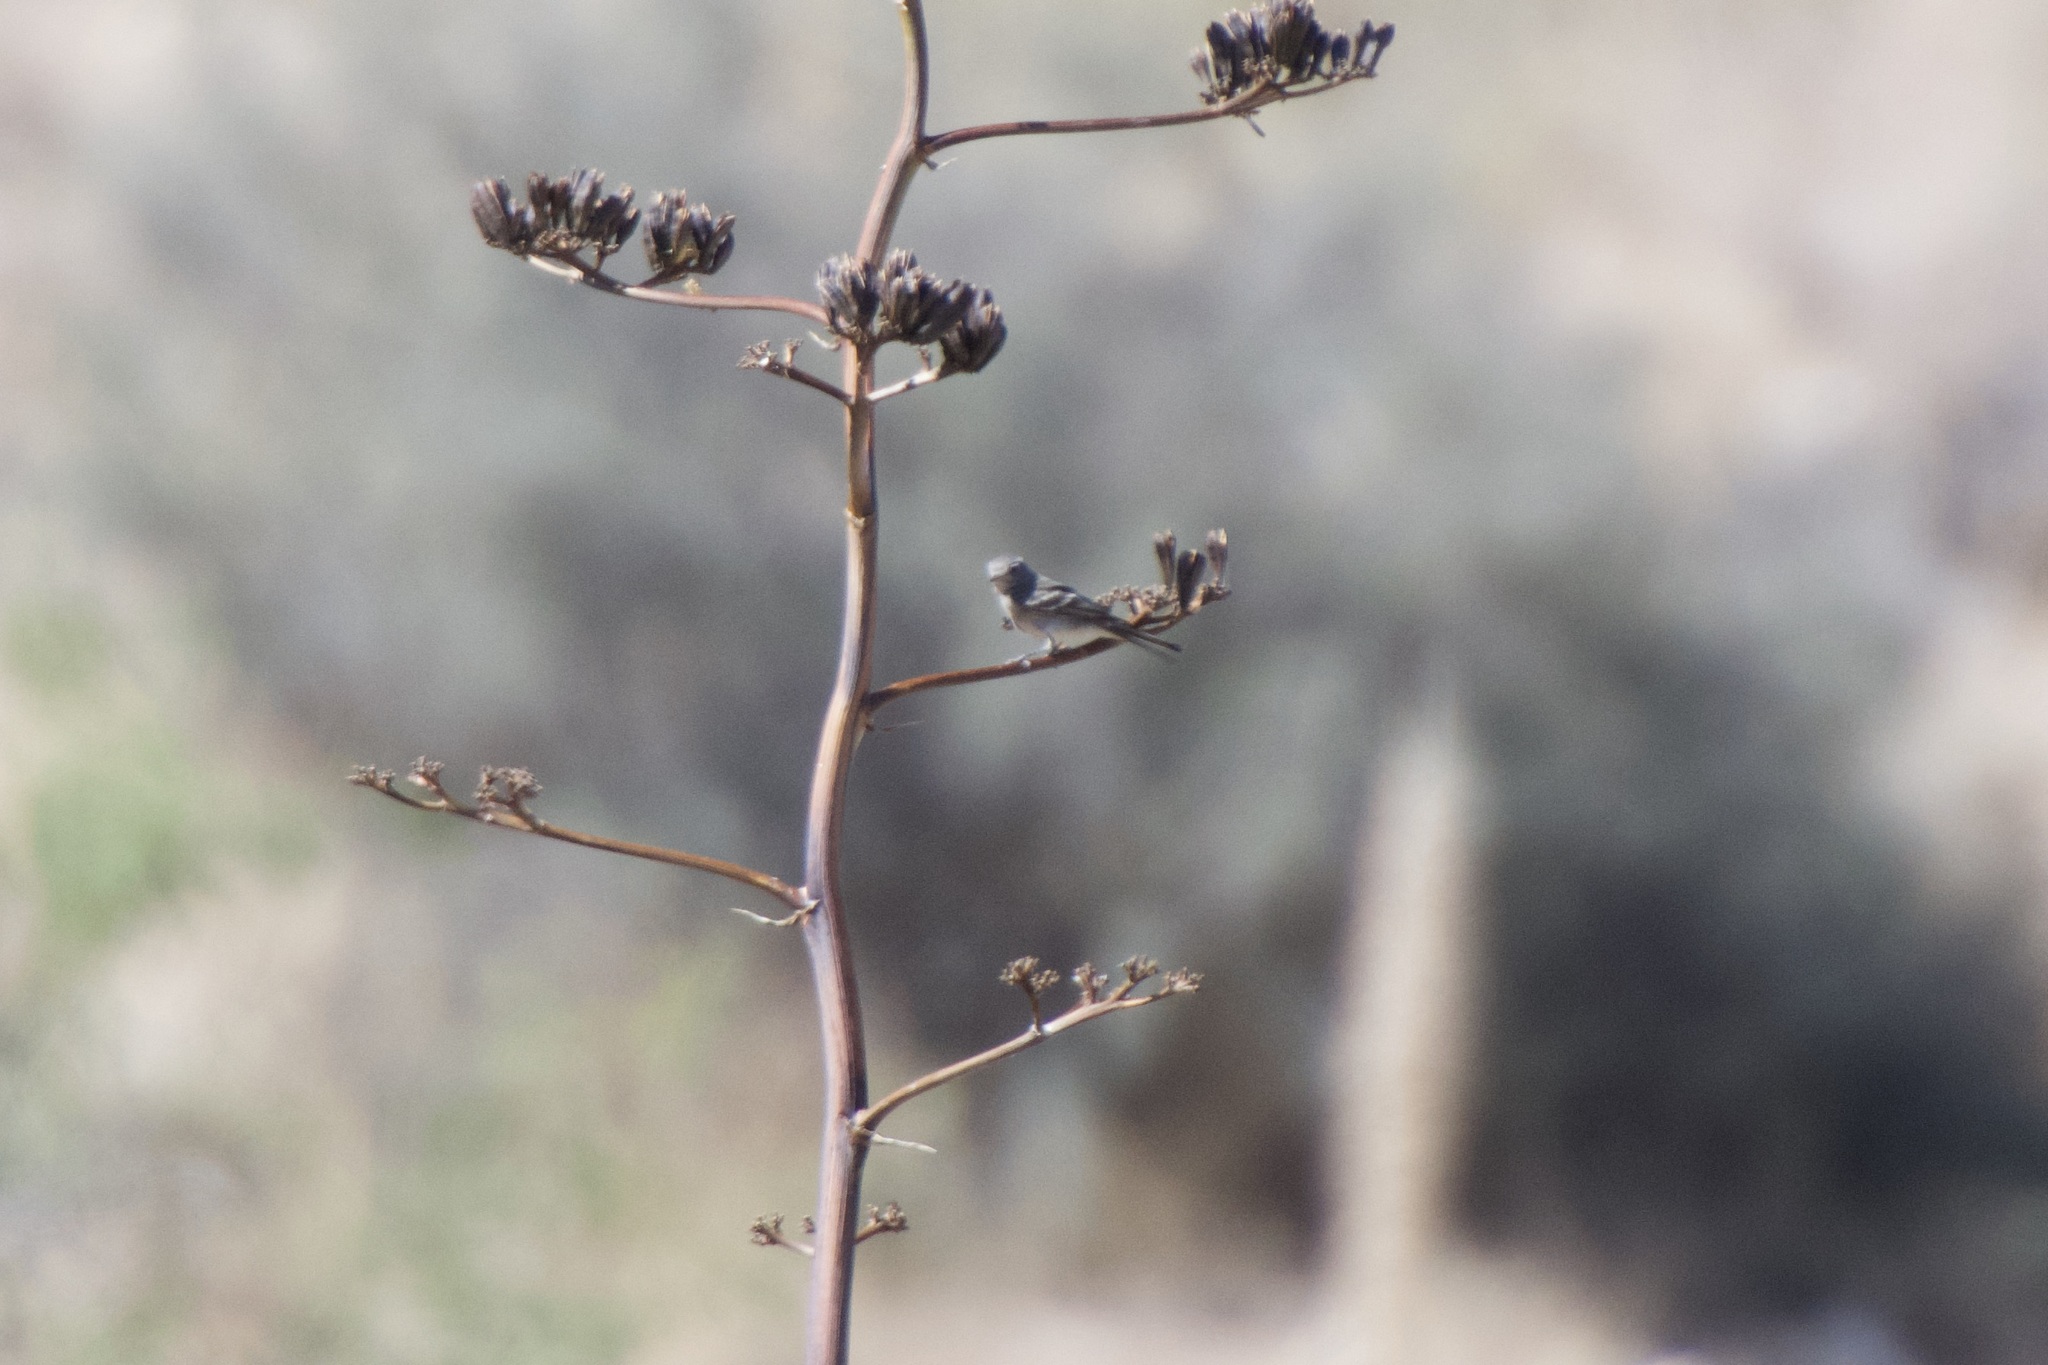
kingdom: Animalia
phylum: Chordata
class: Aves
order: Passeriformes
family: Tyrannidae
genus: Empidonax
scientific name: Empidonax wrightii
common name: Gray flycatcher
